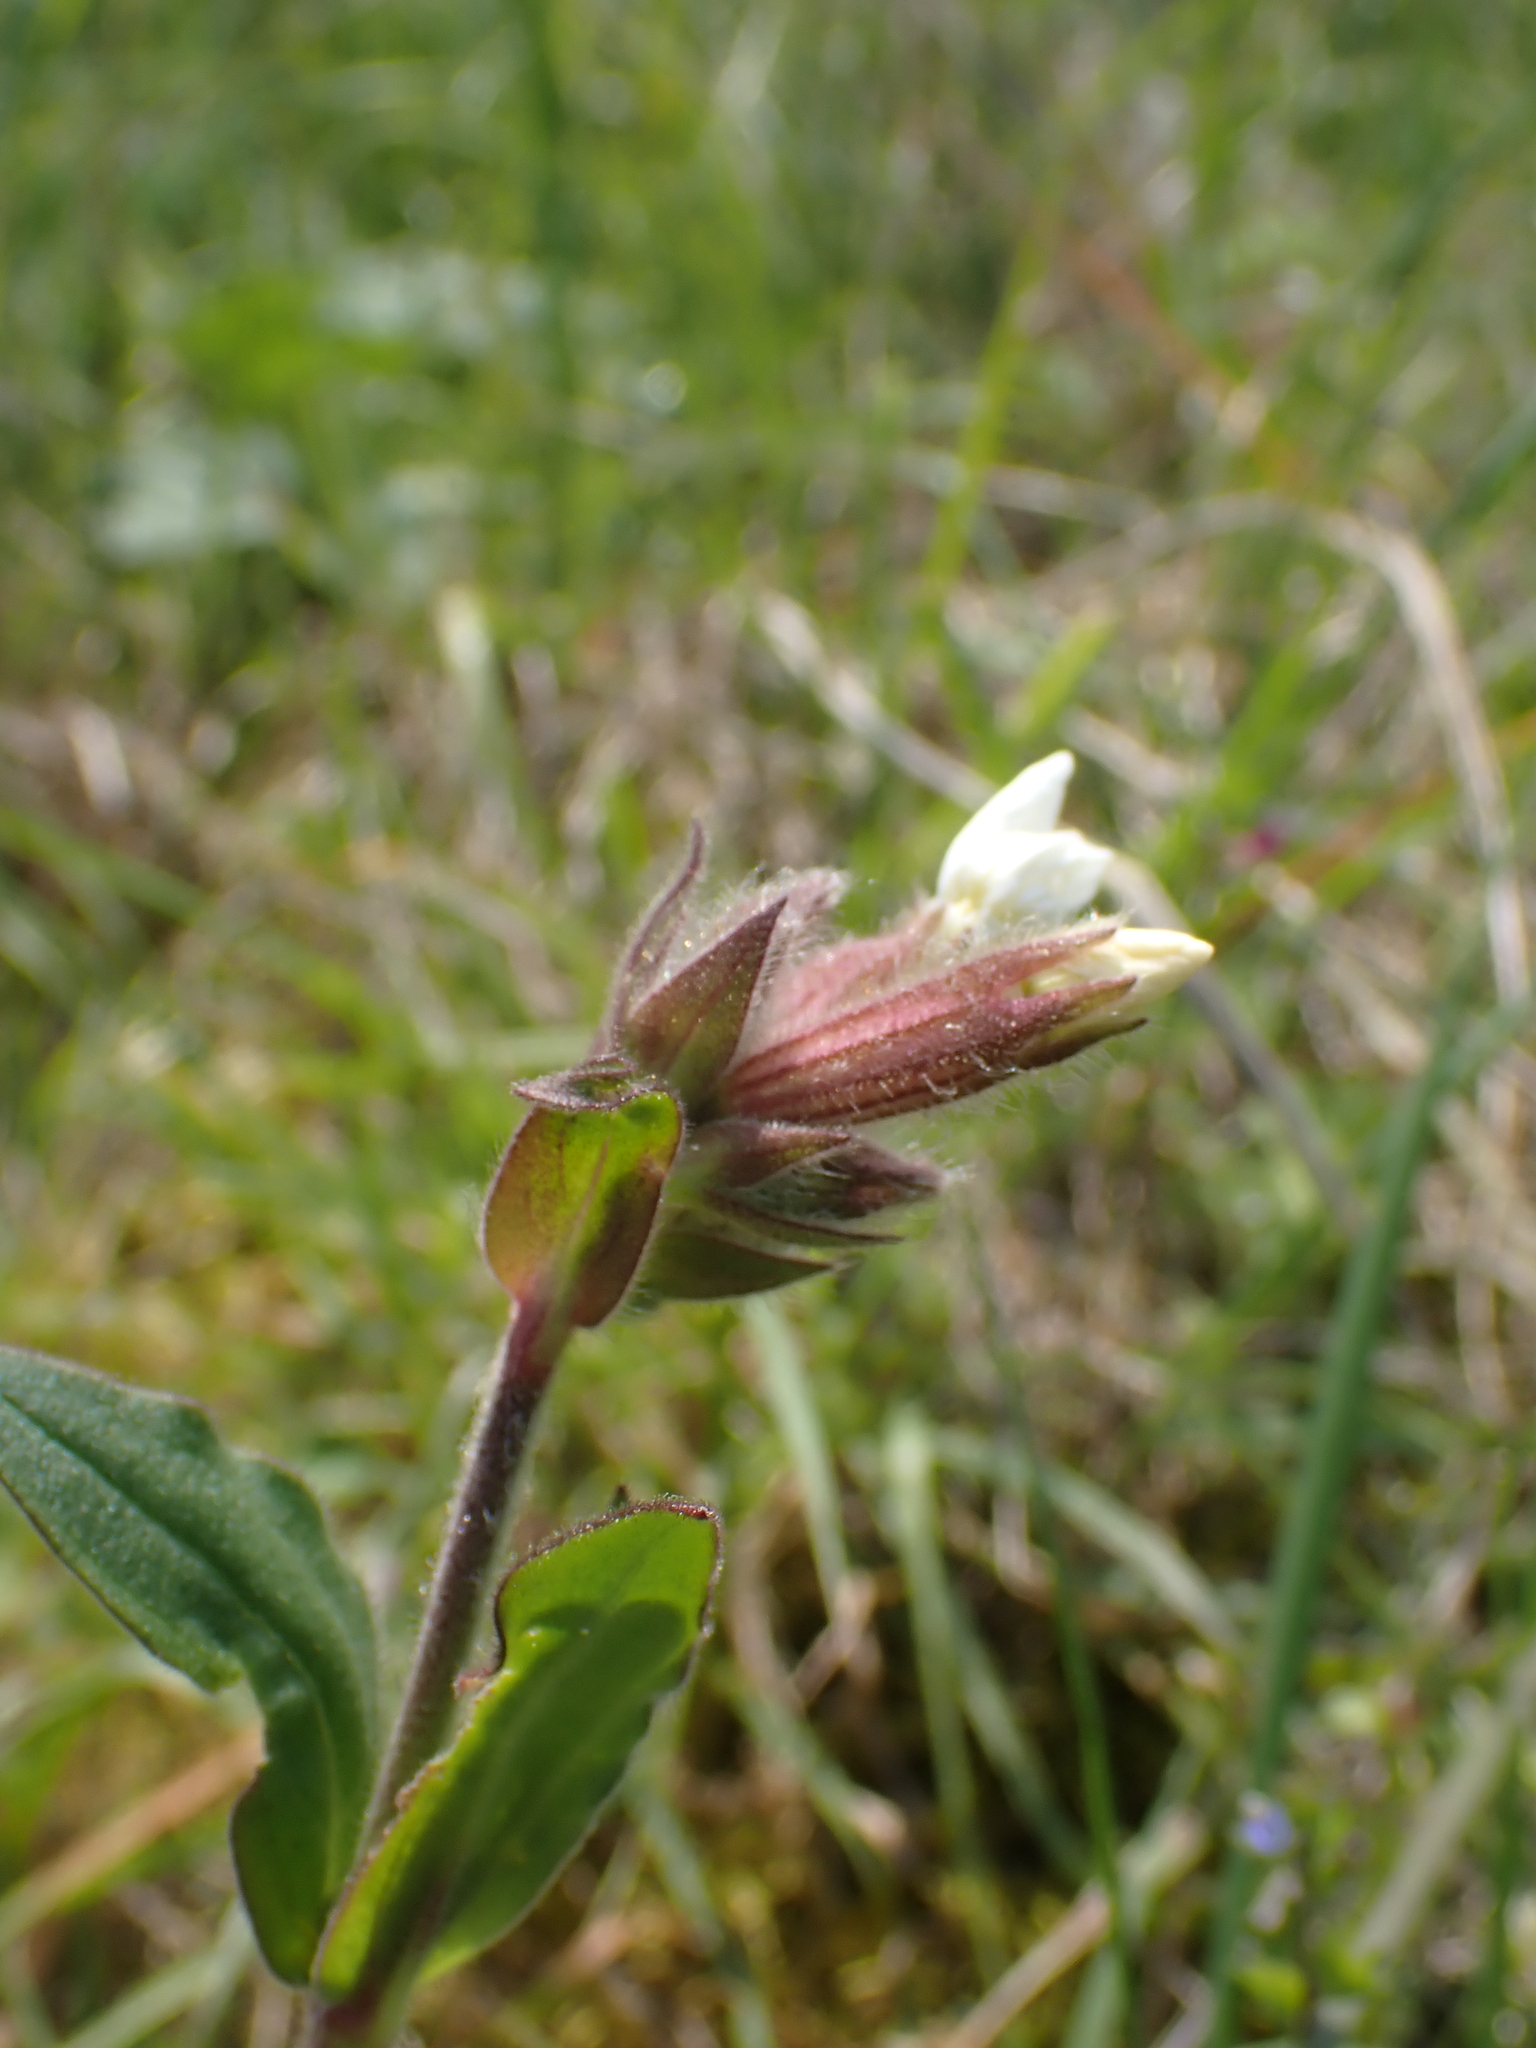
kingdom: Plantae
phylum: Tracheophyta
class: Magnoliopsida
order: Caryophyllales
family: Caryophyllaceae
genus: Silene
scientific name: Silene latifolia
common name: White campion
